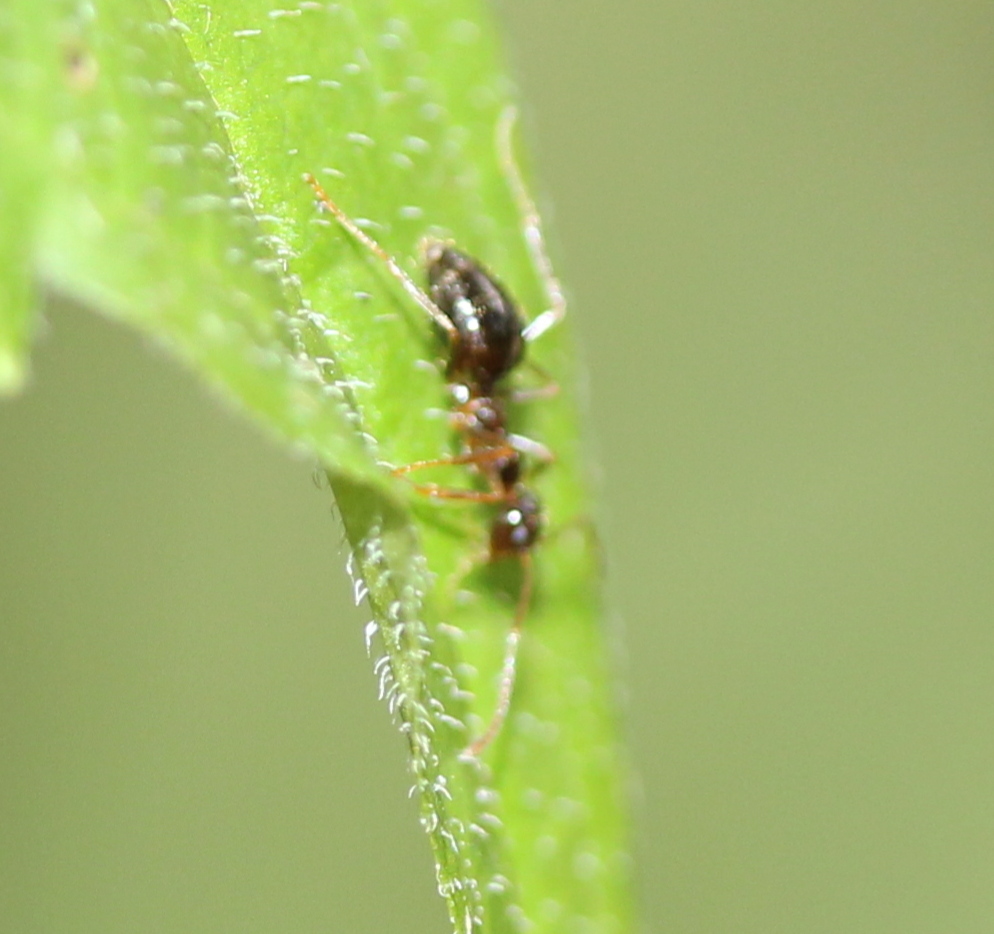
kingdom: Animalia
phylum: Arthropoda
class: Insecta
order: Hymenoptera
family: Formicidae
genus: Prenolepis
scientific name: Prenolepis imparis
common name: Small honey ant
